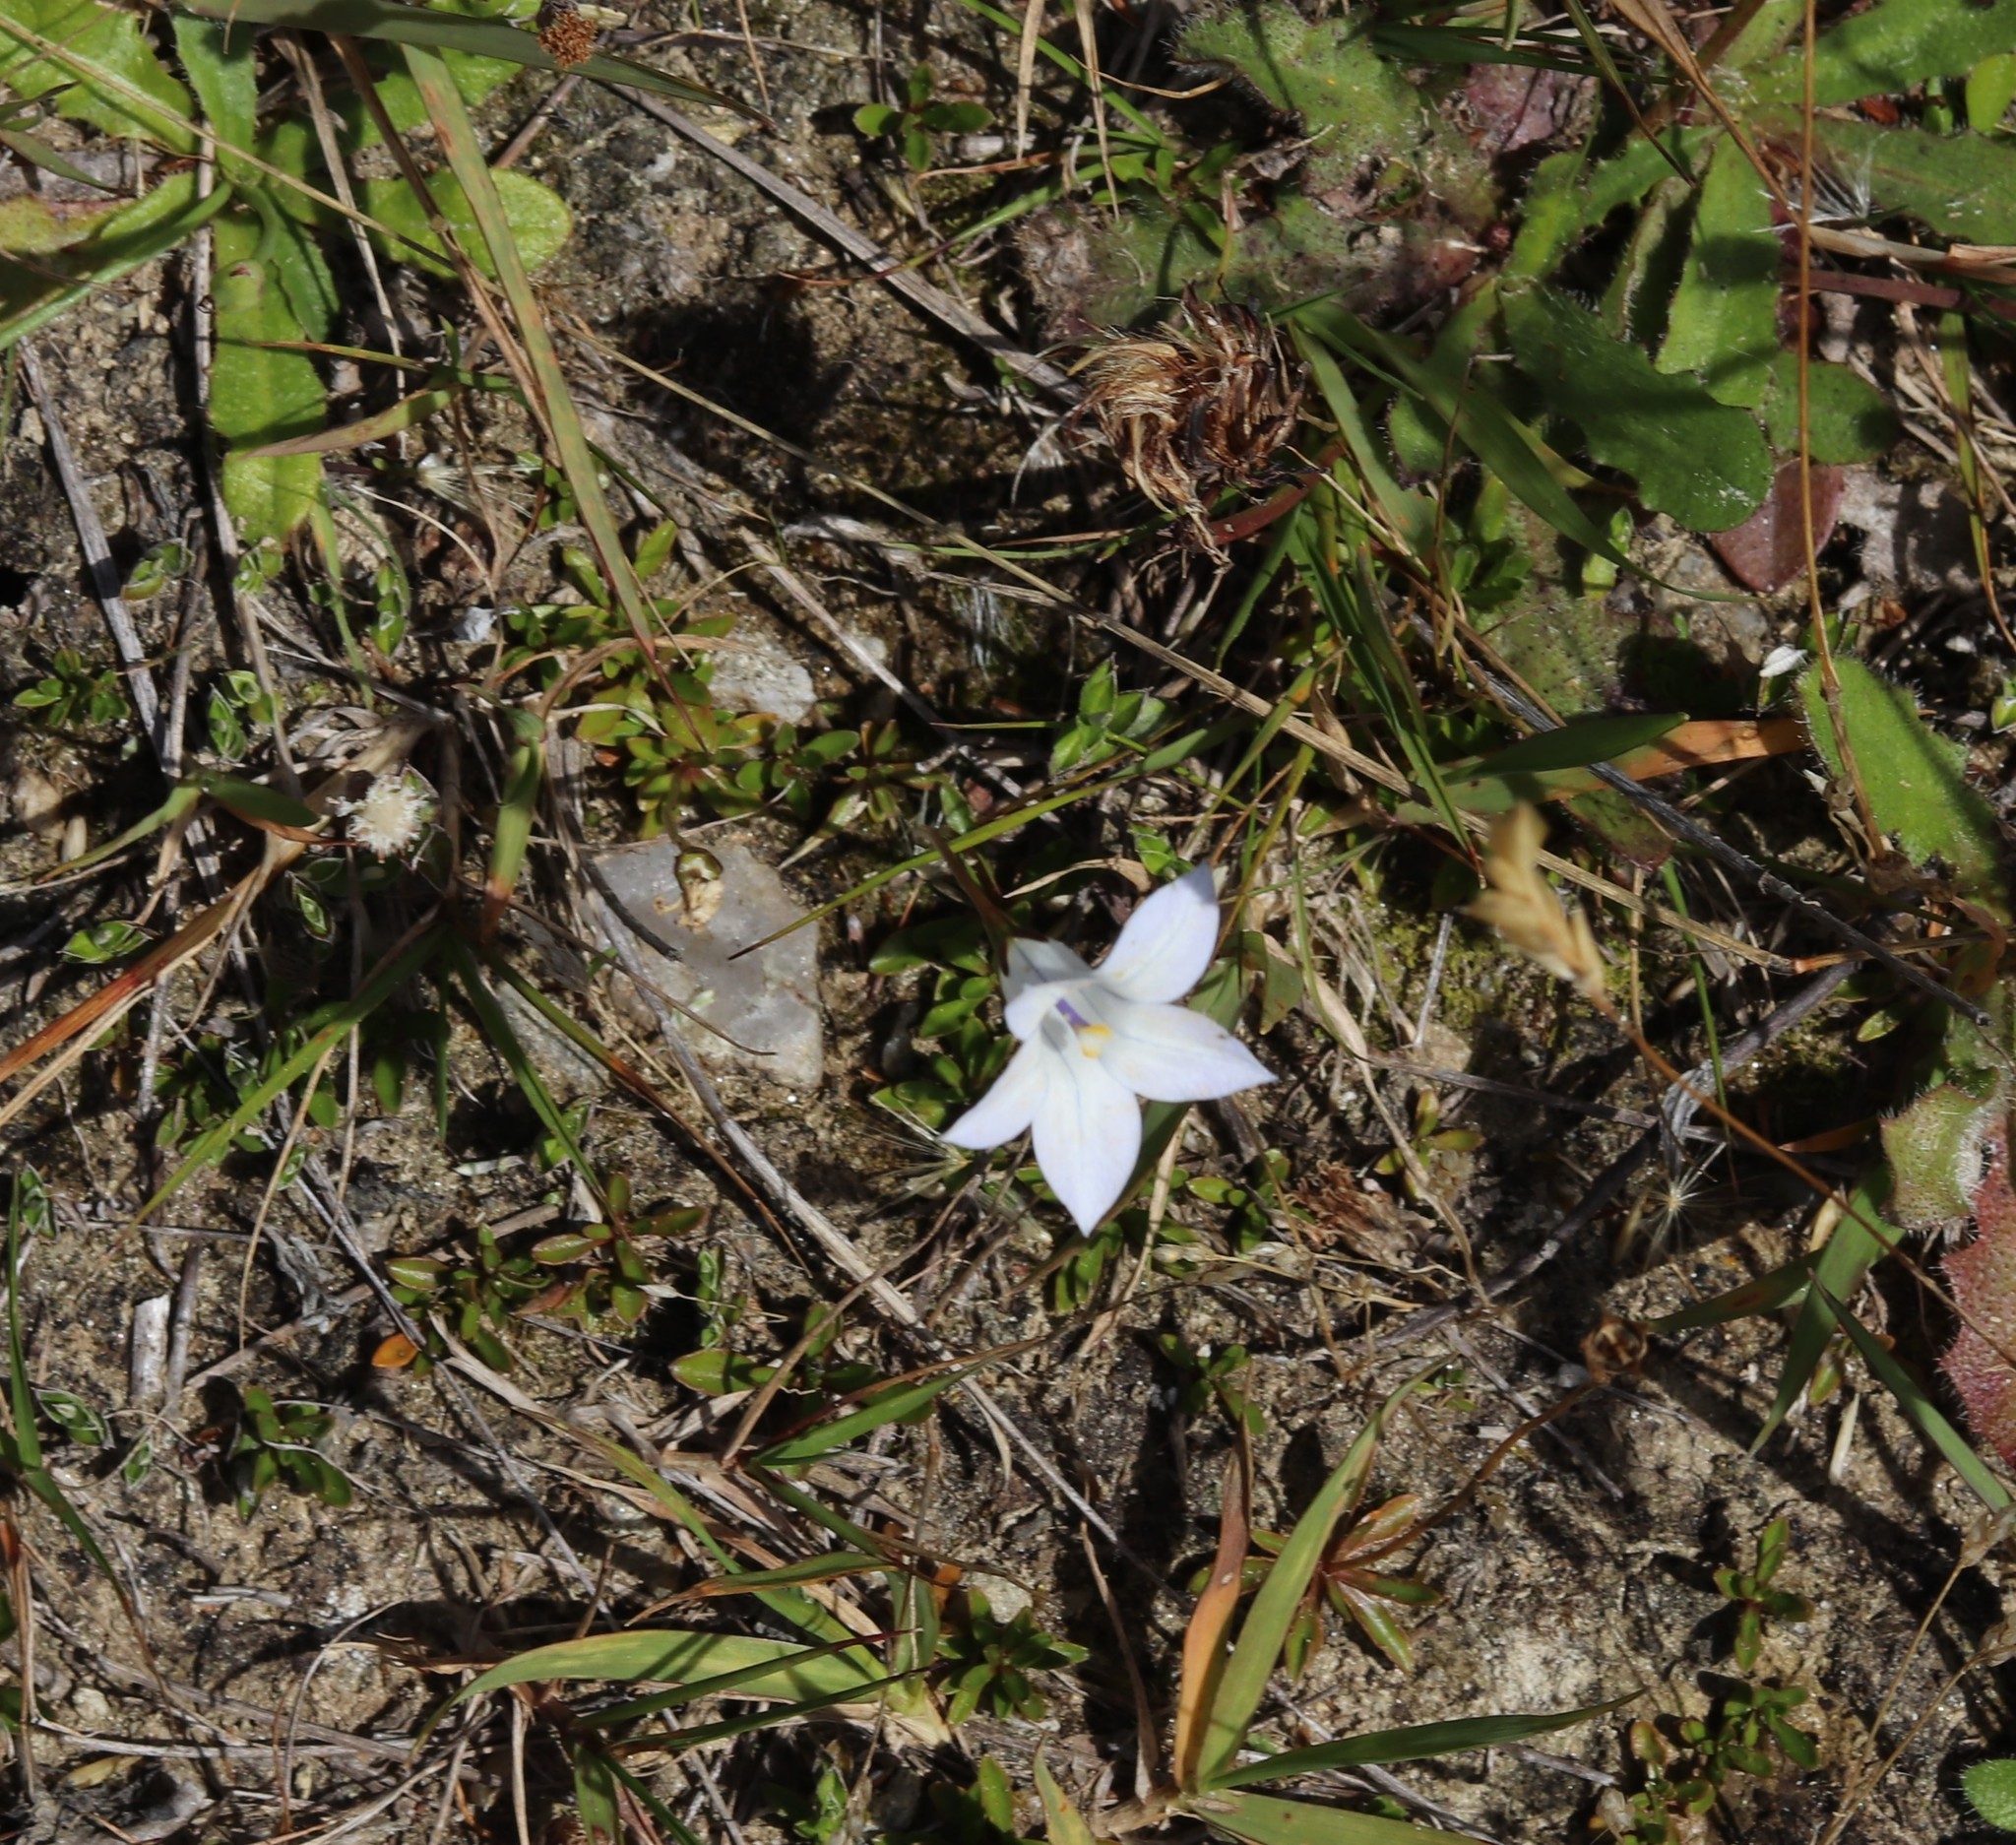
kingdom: Plantae
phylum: Tracheophyta
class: Magnoliopsida
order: Asterales
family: Campanulaceae
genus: Wahlenbergia
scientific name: Wahlenbergia albomarginata
